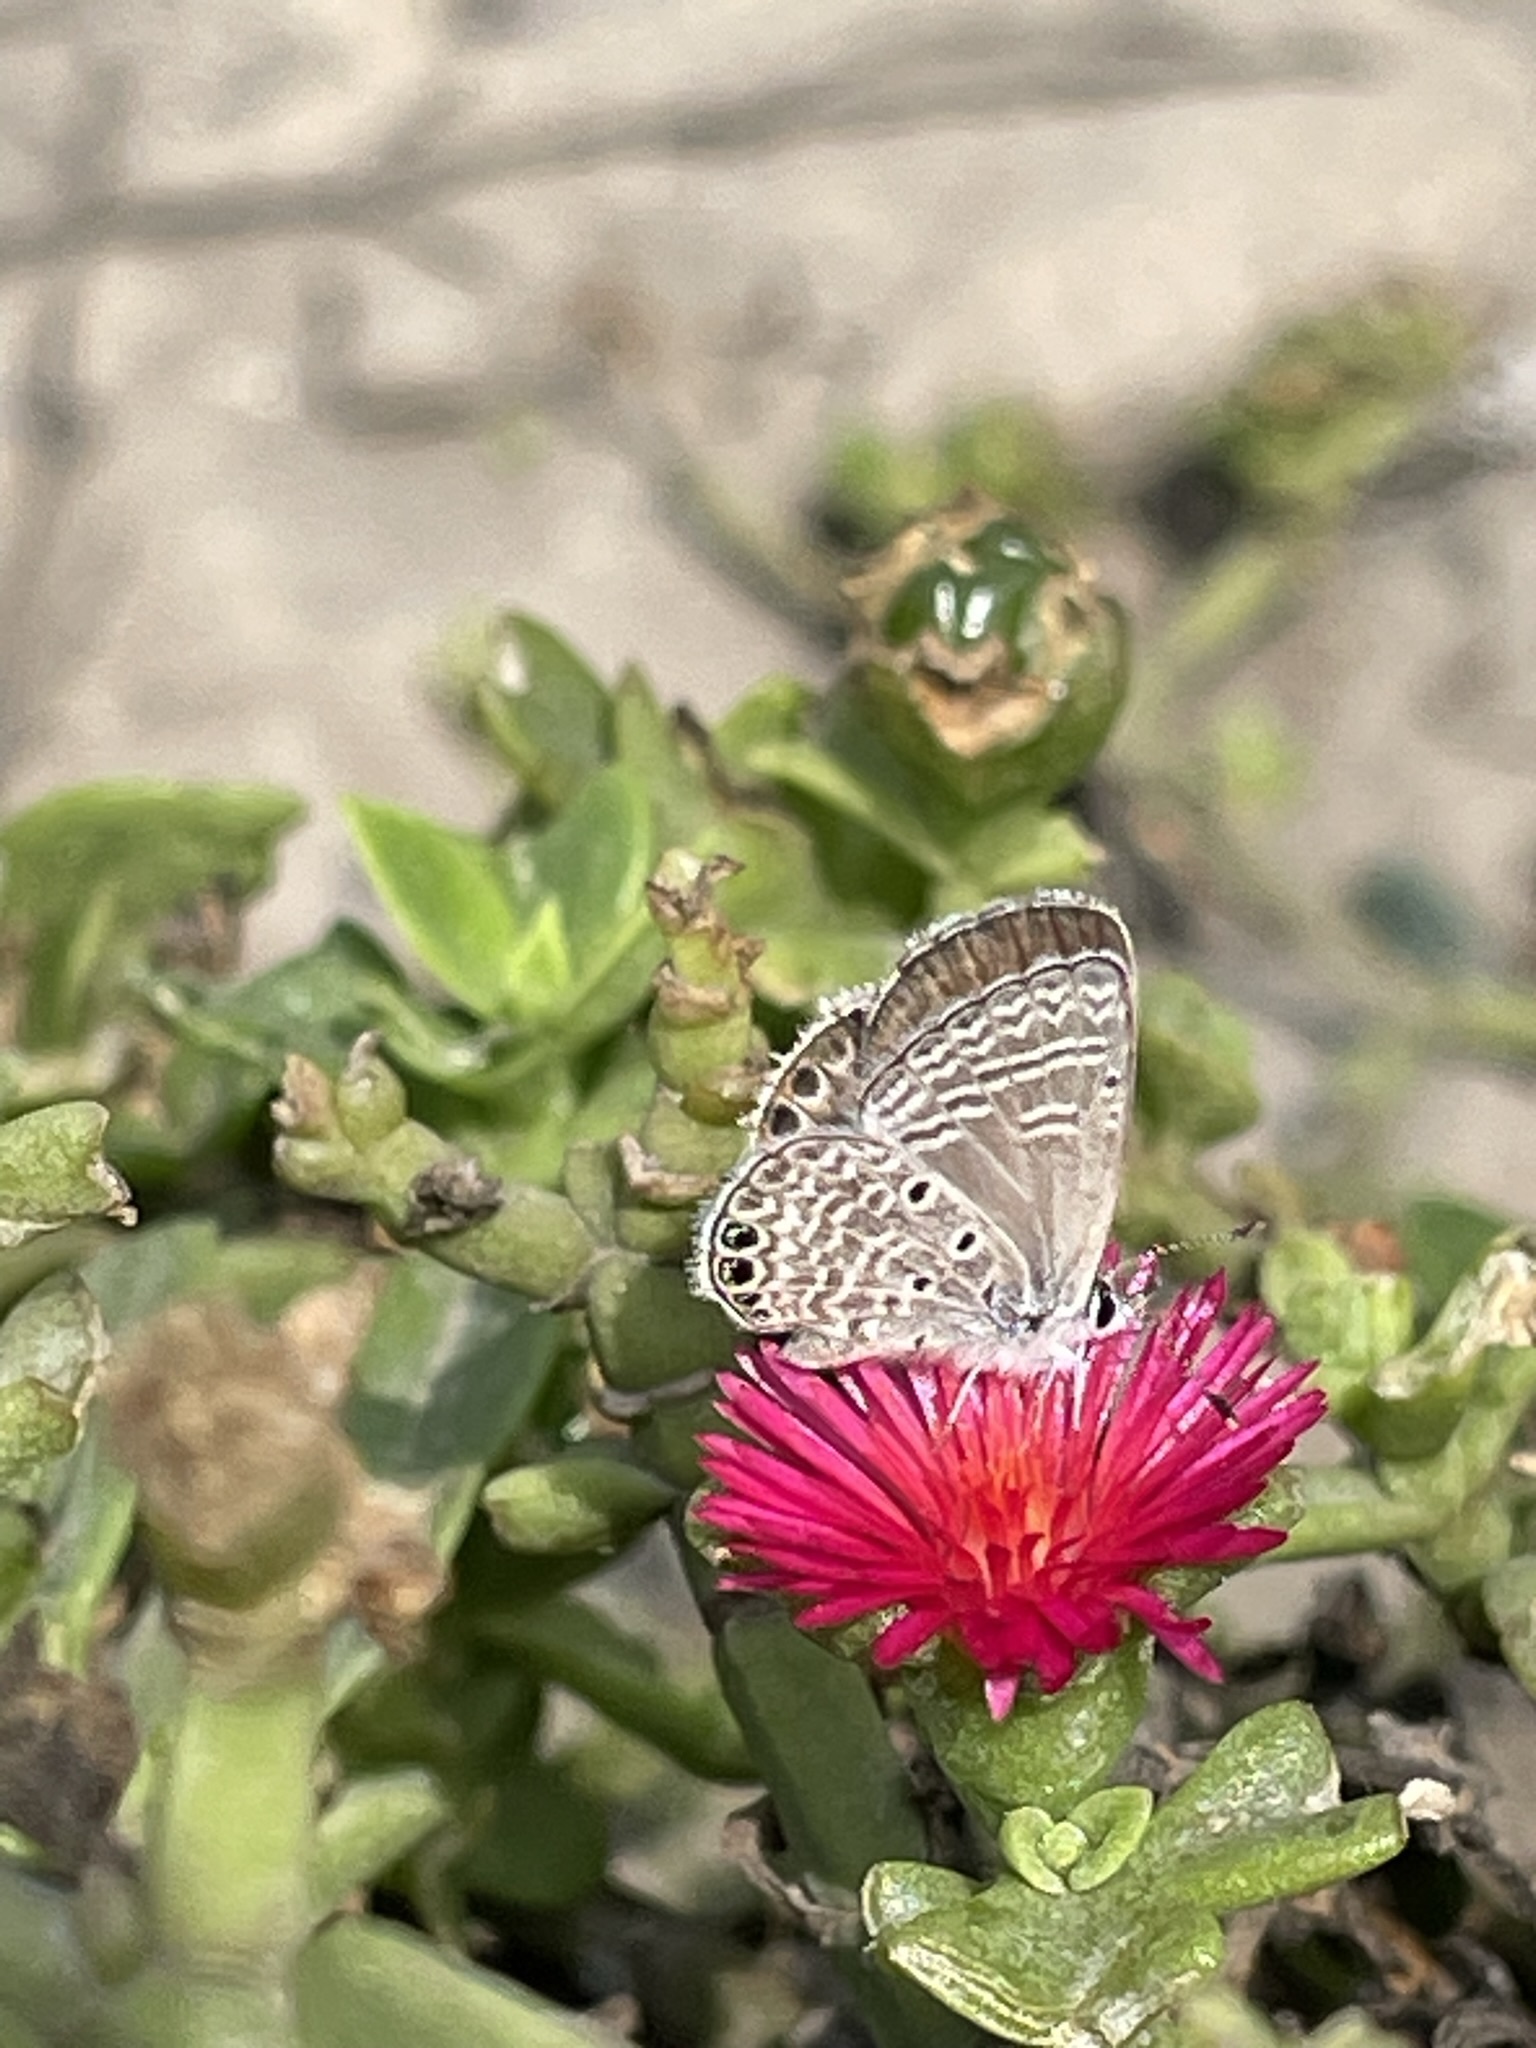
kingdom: Animalia
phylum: Arthropoda
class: Insecta
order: Lepidoptera
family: Lycaenidae
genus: Hemiargus
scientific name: Hemiargus ramon
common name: Ramon blue
